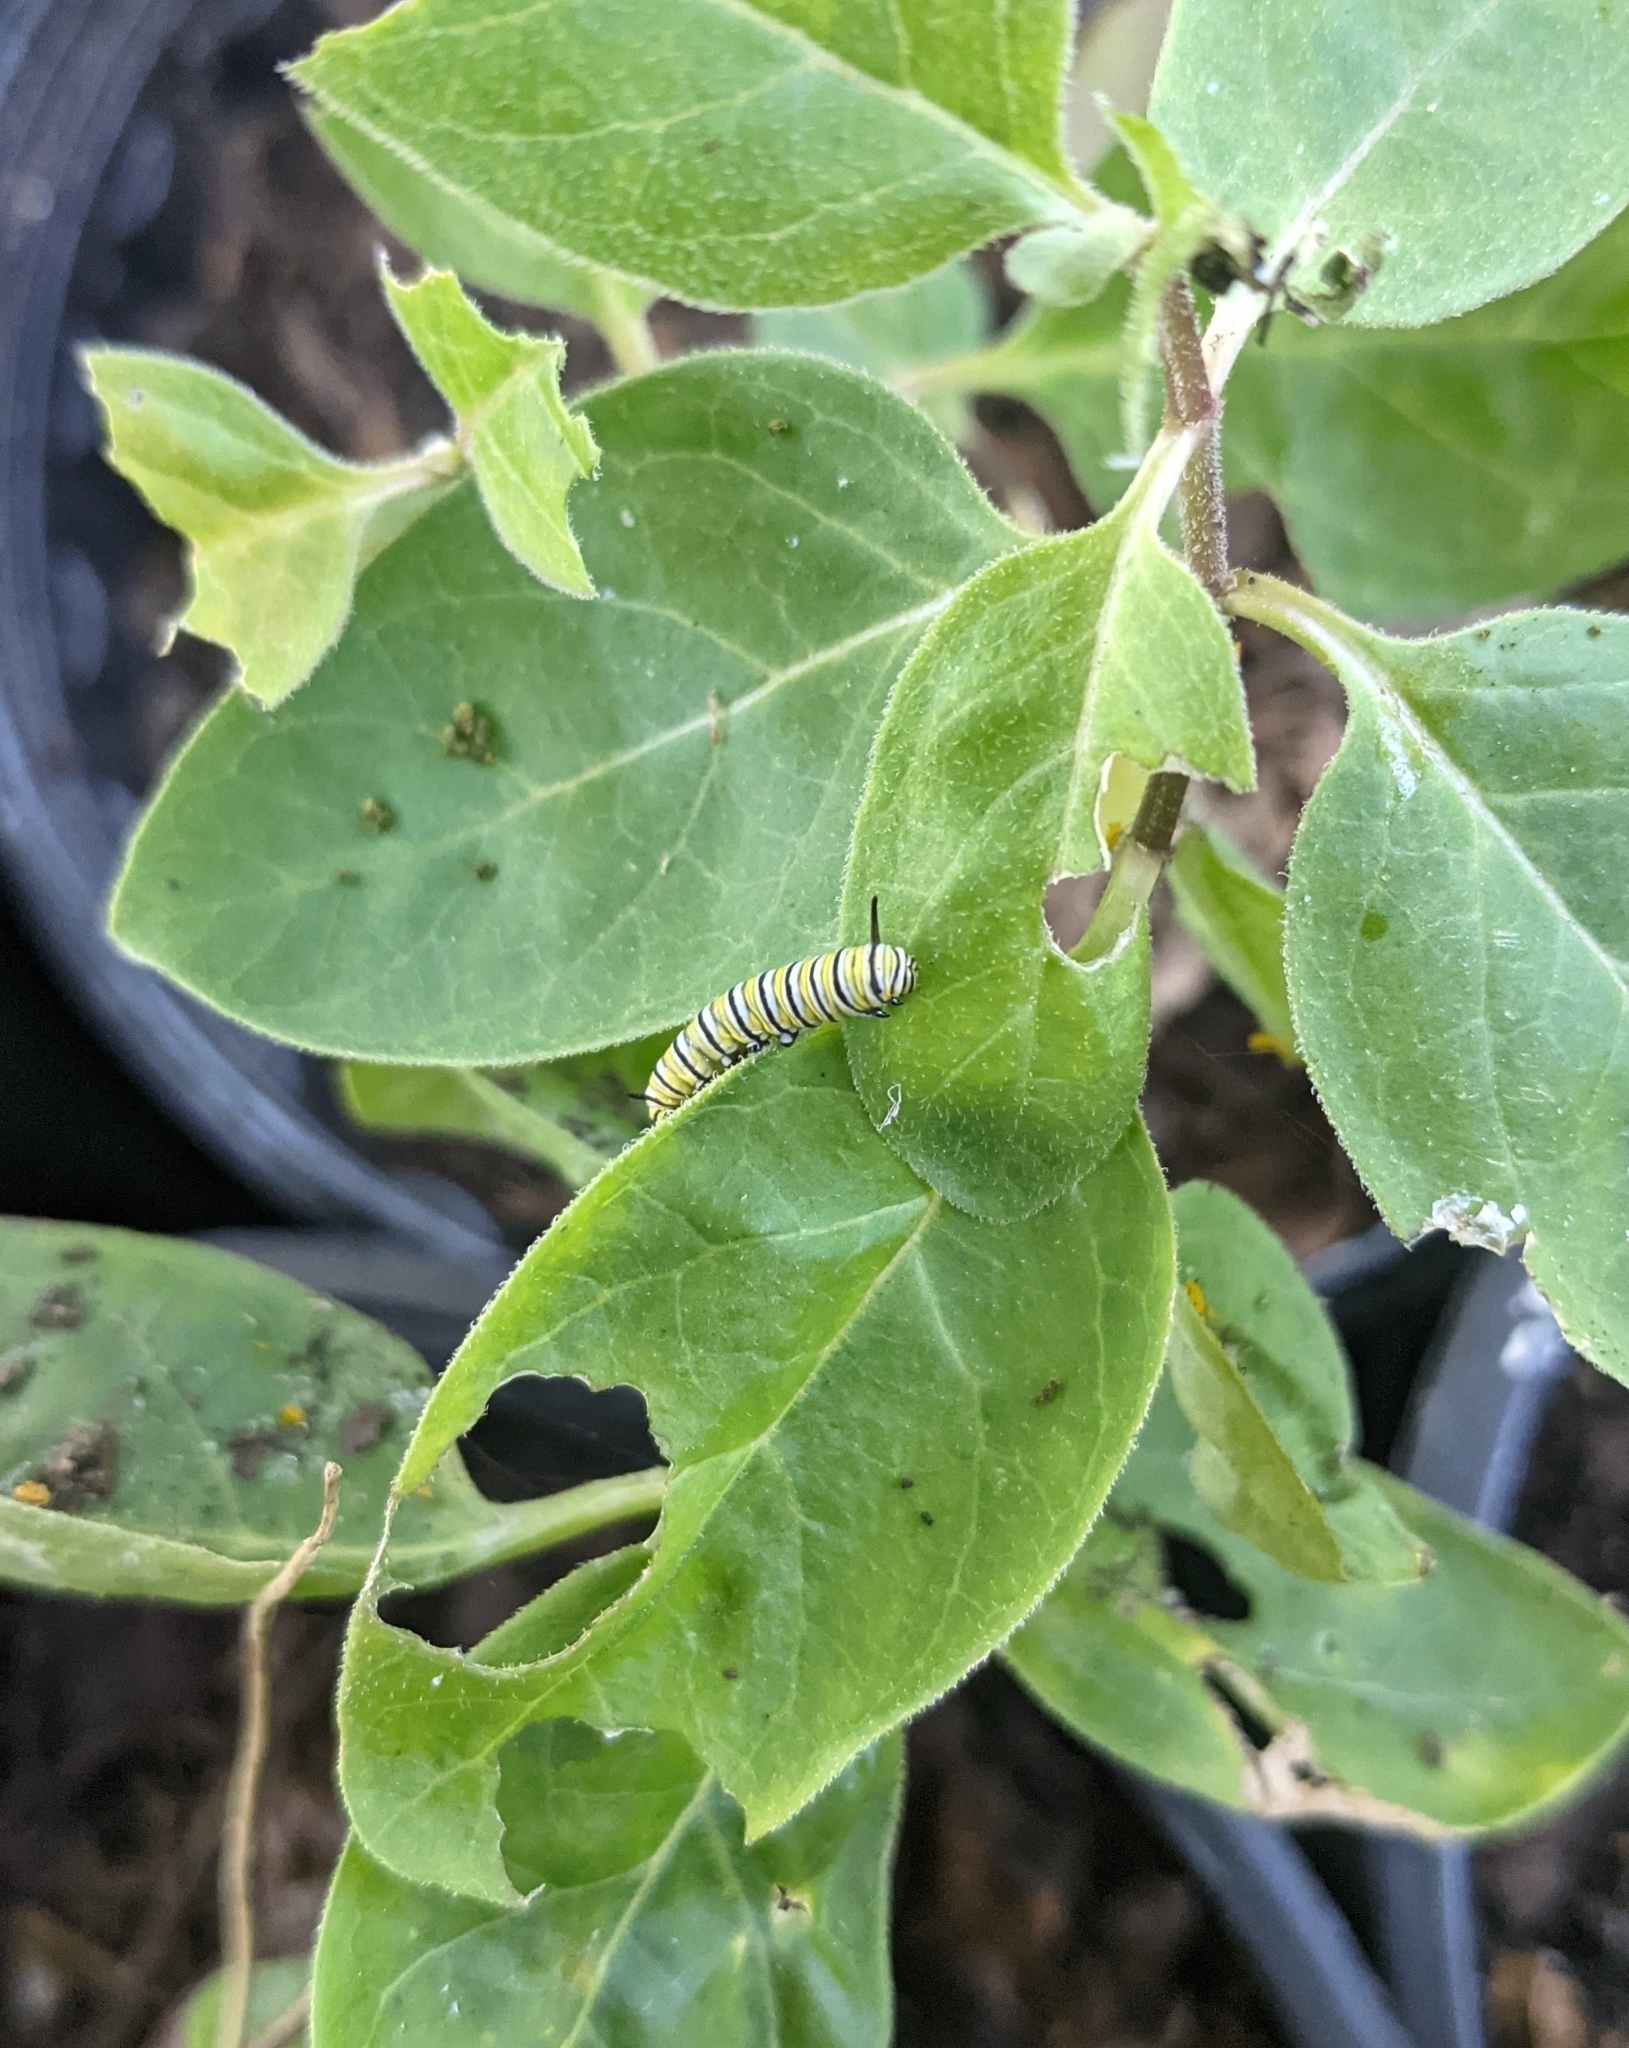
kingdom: Animalia
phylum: Arthropoda
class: Insecta
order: Lepidoptera
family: Nymphalidae
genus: Danaus
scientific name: Danaus plexippus
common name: Monarch
